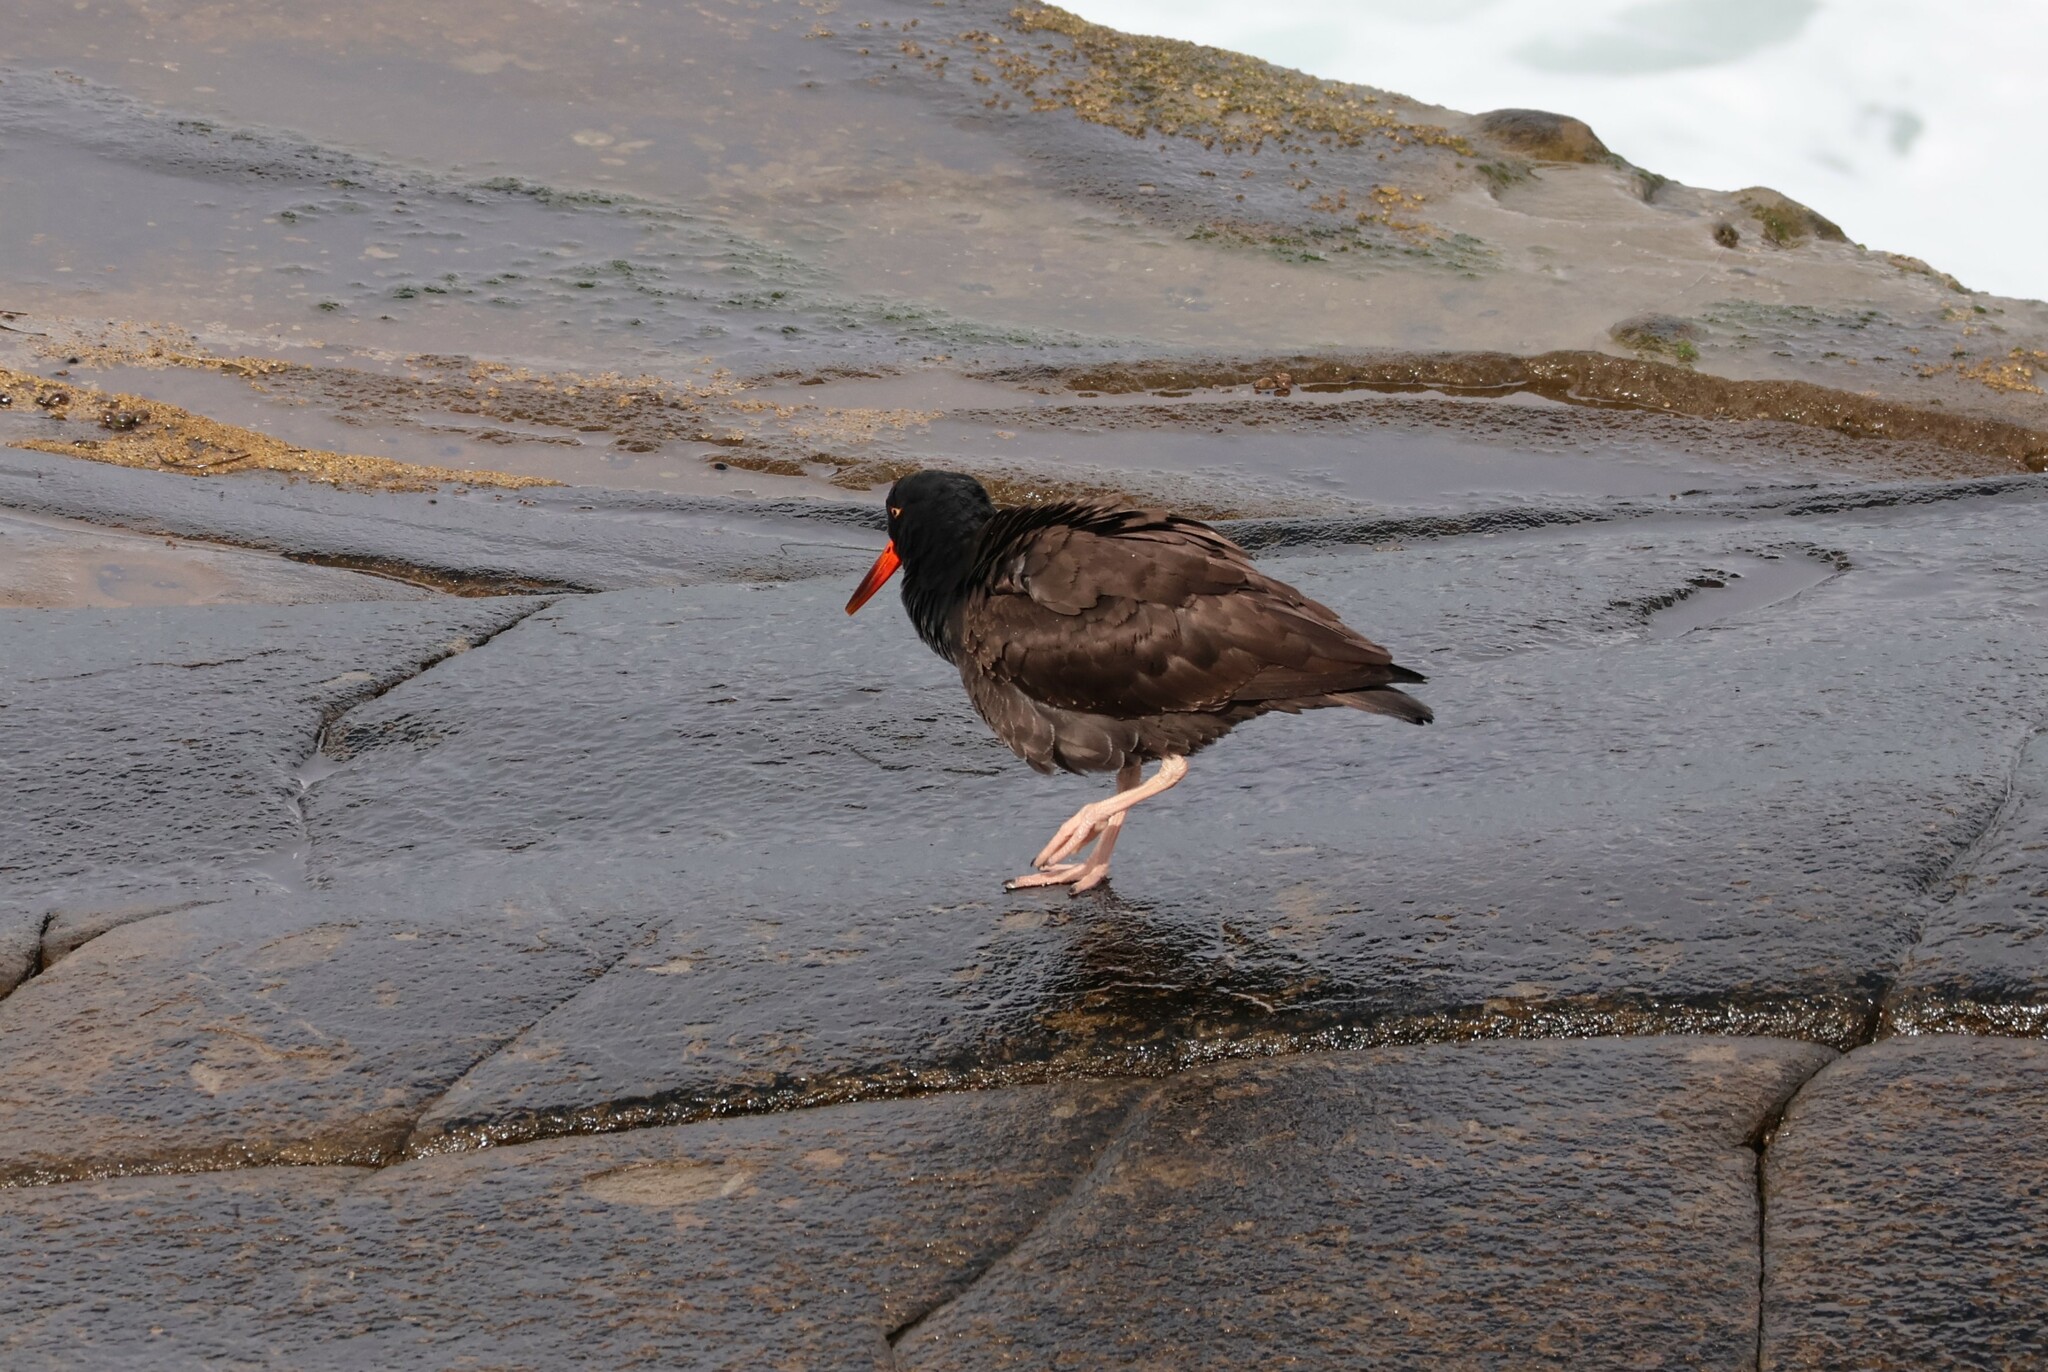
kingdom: Animalia
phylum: Chordata
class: Aves
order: Charadriiformes
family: Haematopodidae
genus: Haematopus
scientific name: Haematopus bachmani
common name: Black oystercatcher
